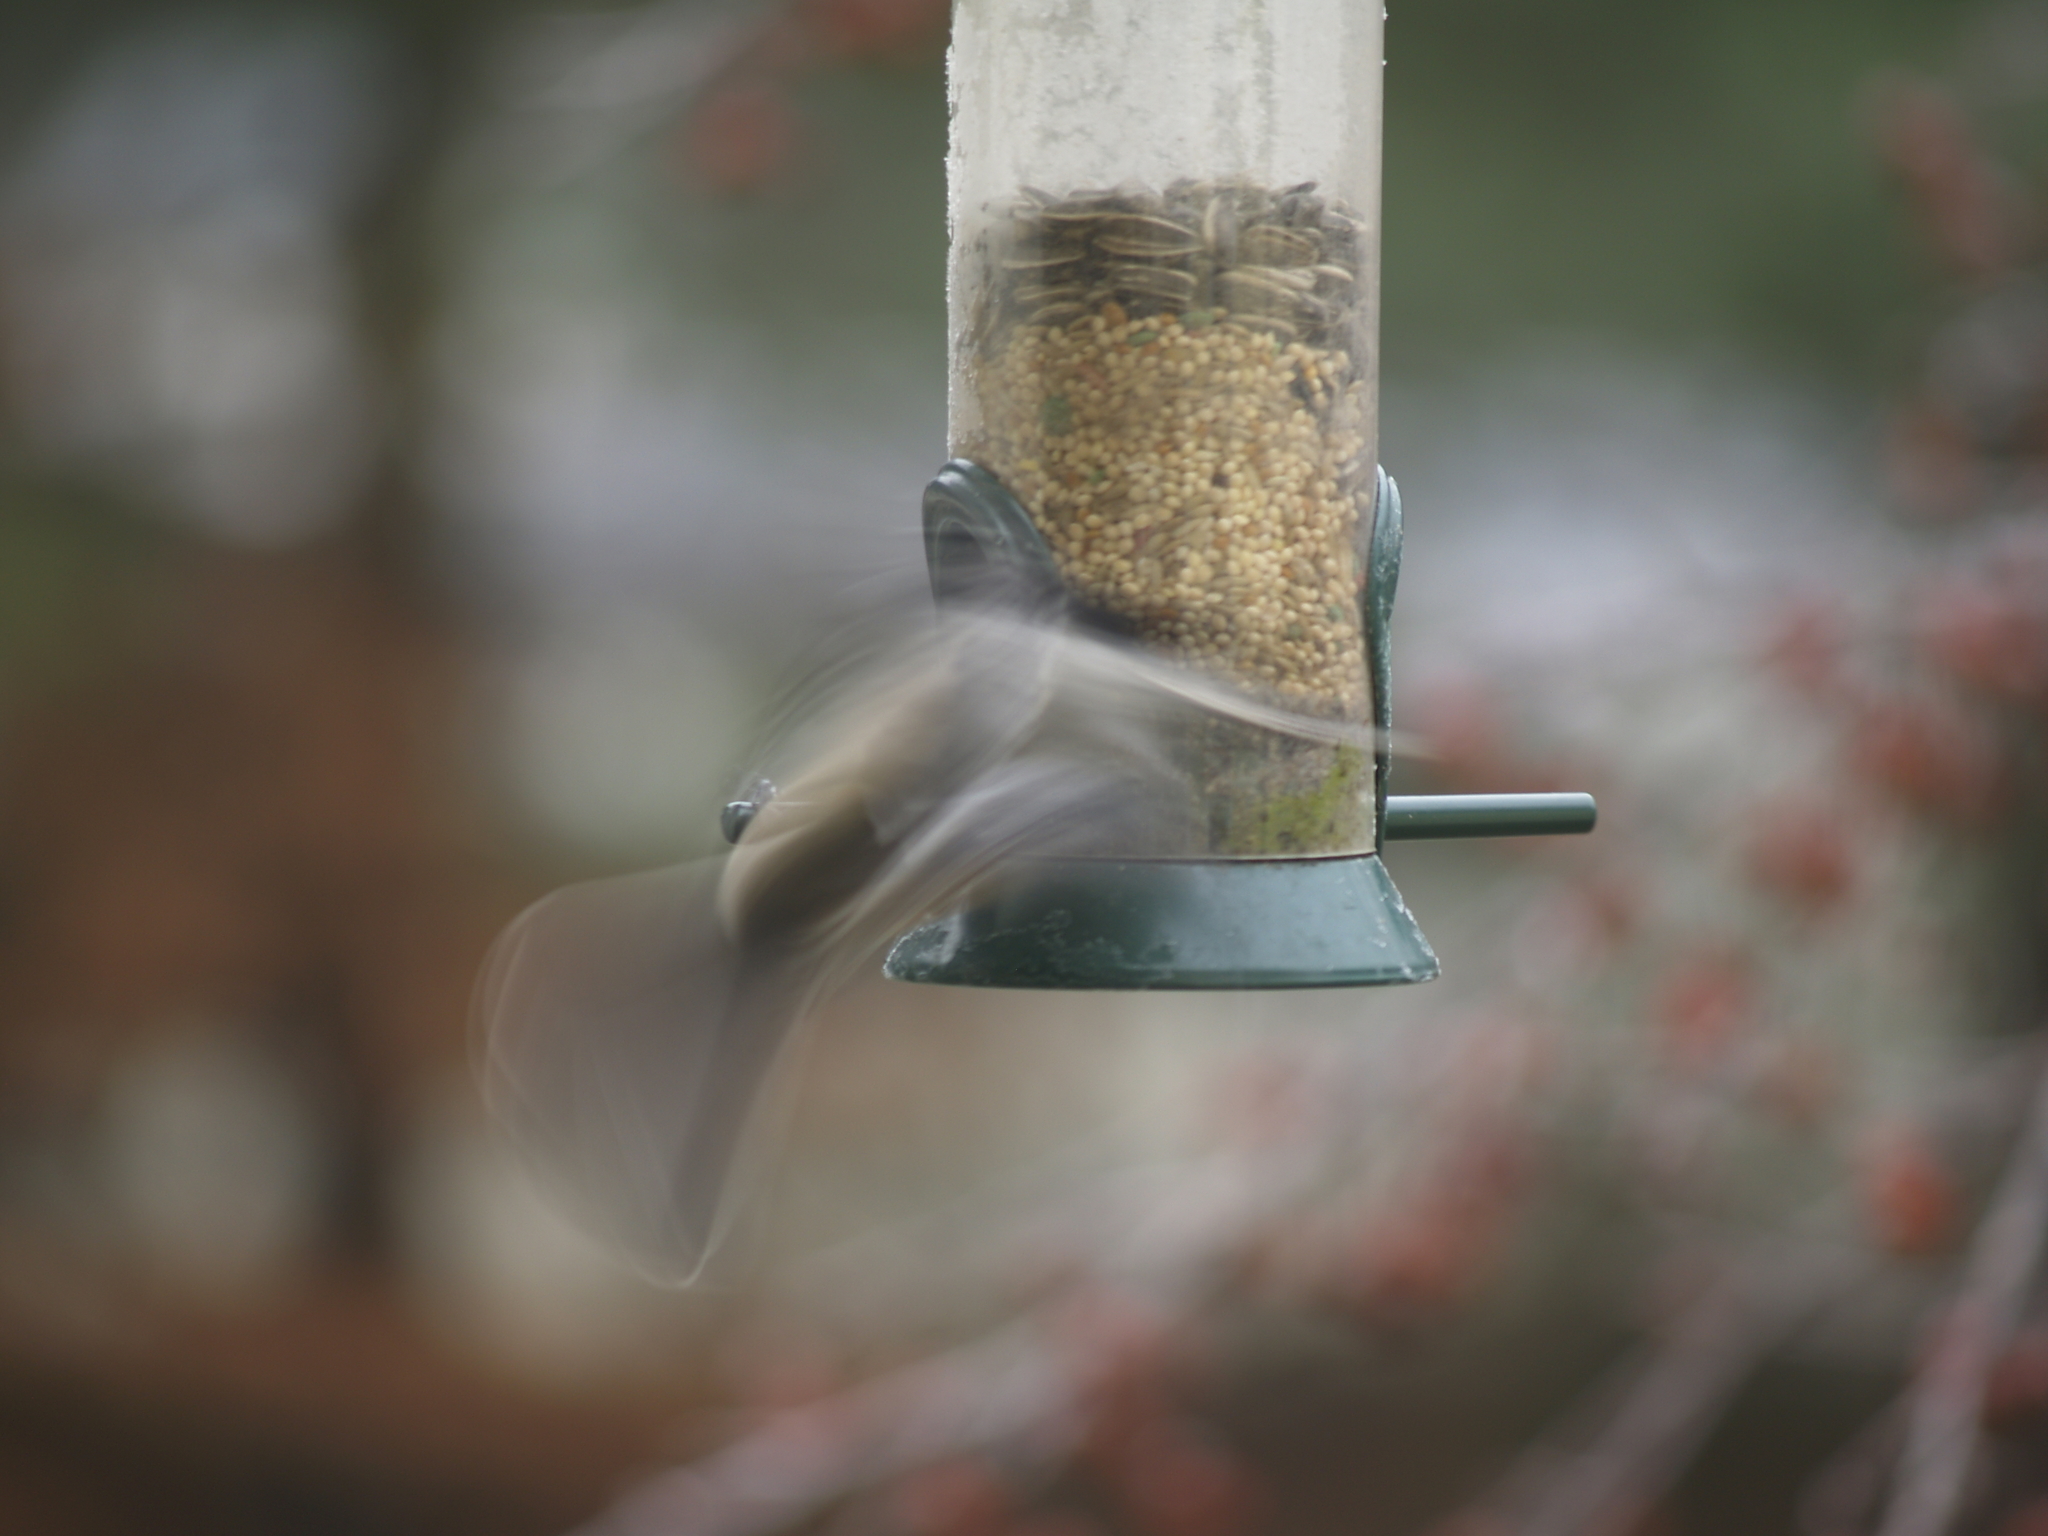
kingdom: Animalia
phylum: Chordata
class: Aves
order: Passeriformes
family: Paridae
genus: Poecile
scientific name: Poecile atricapillus
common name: Black-capped chickadee
